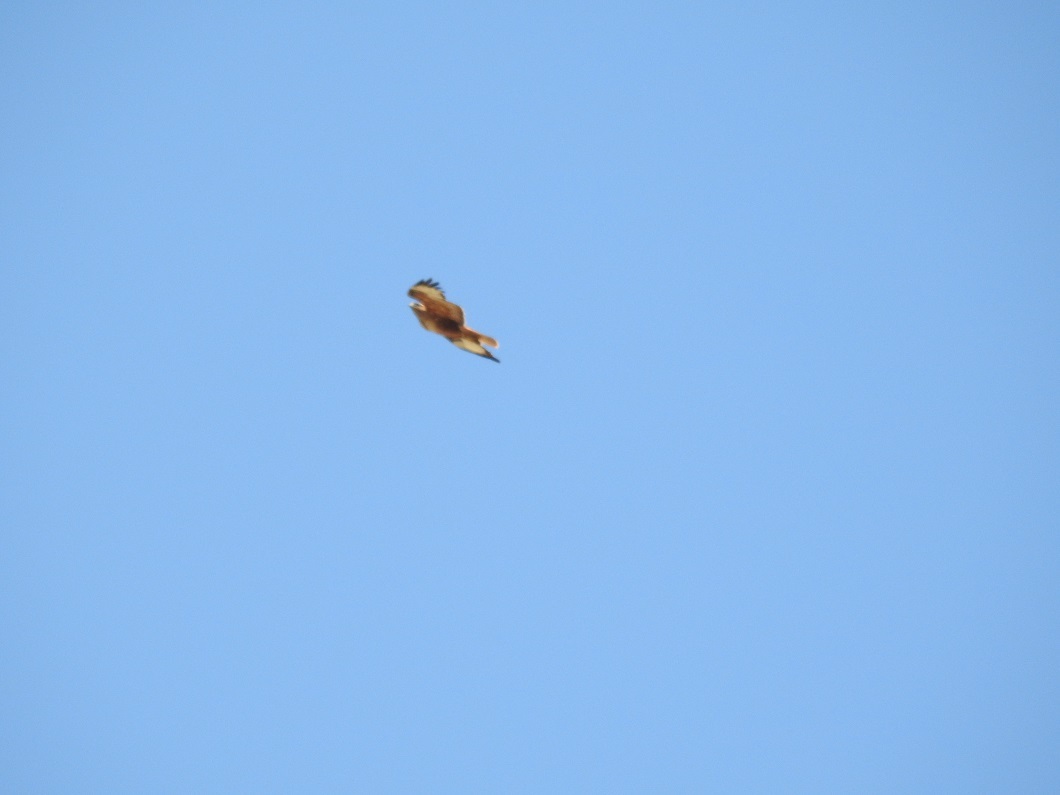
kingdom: Animalia
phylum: Chordata
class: Aves
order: Accipitriformes
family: Accipitridae
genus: Buteo
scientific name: Buteo rufinus
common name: Long-legged buzzard
